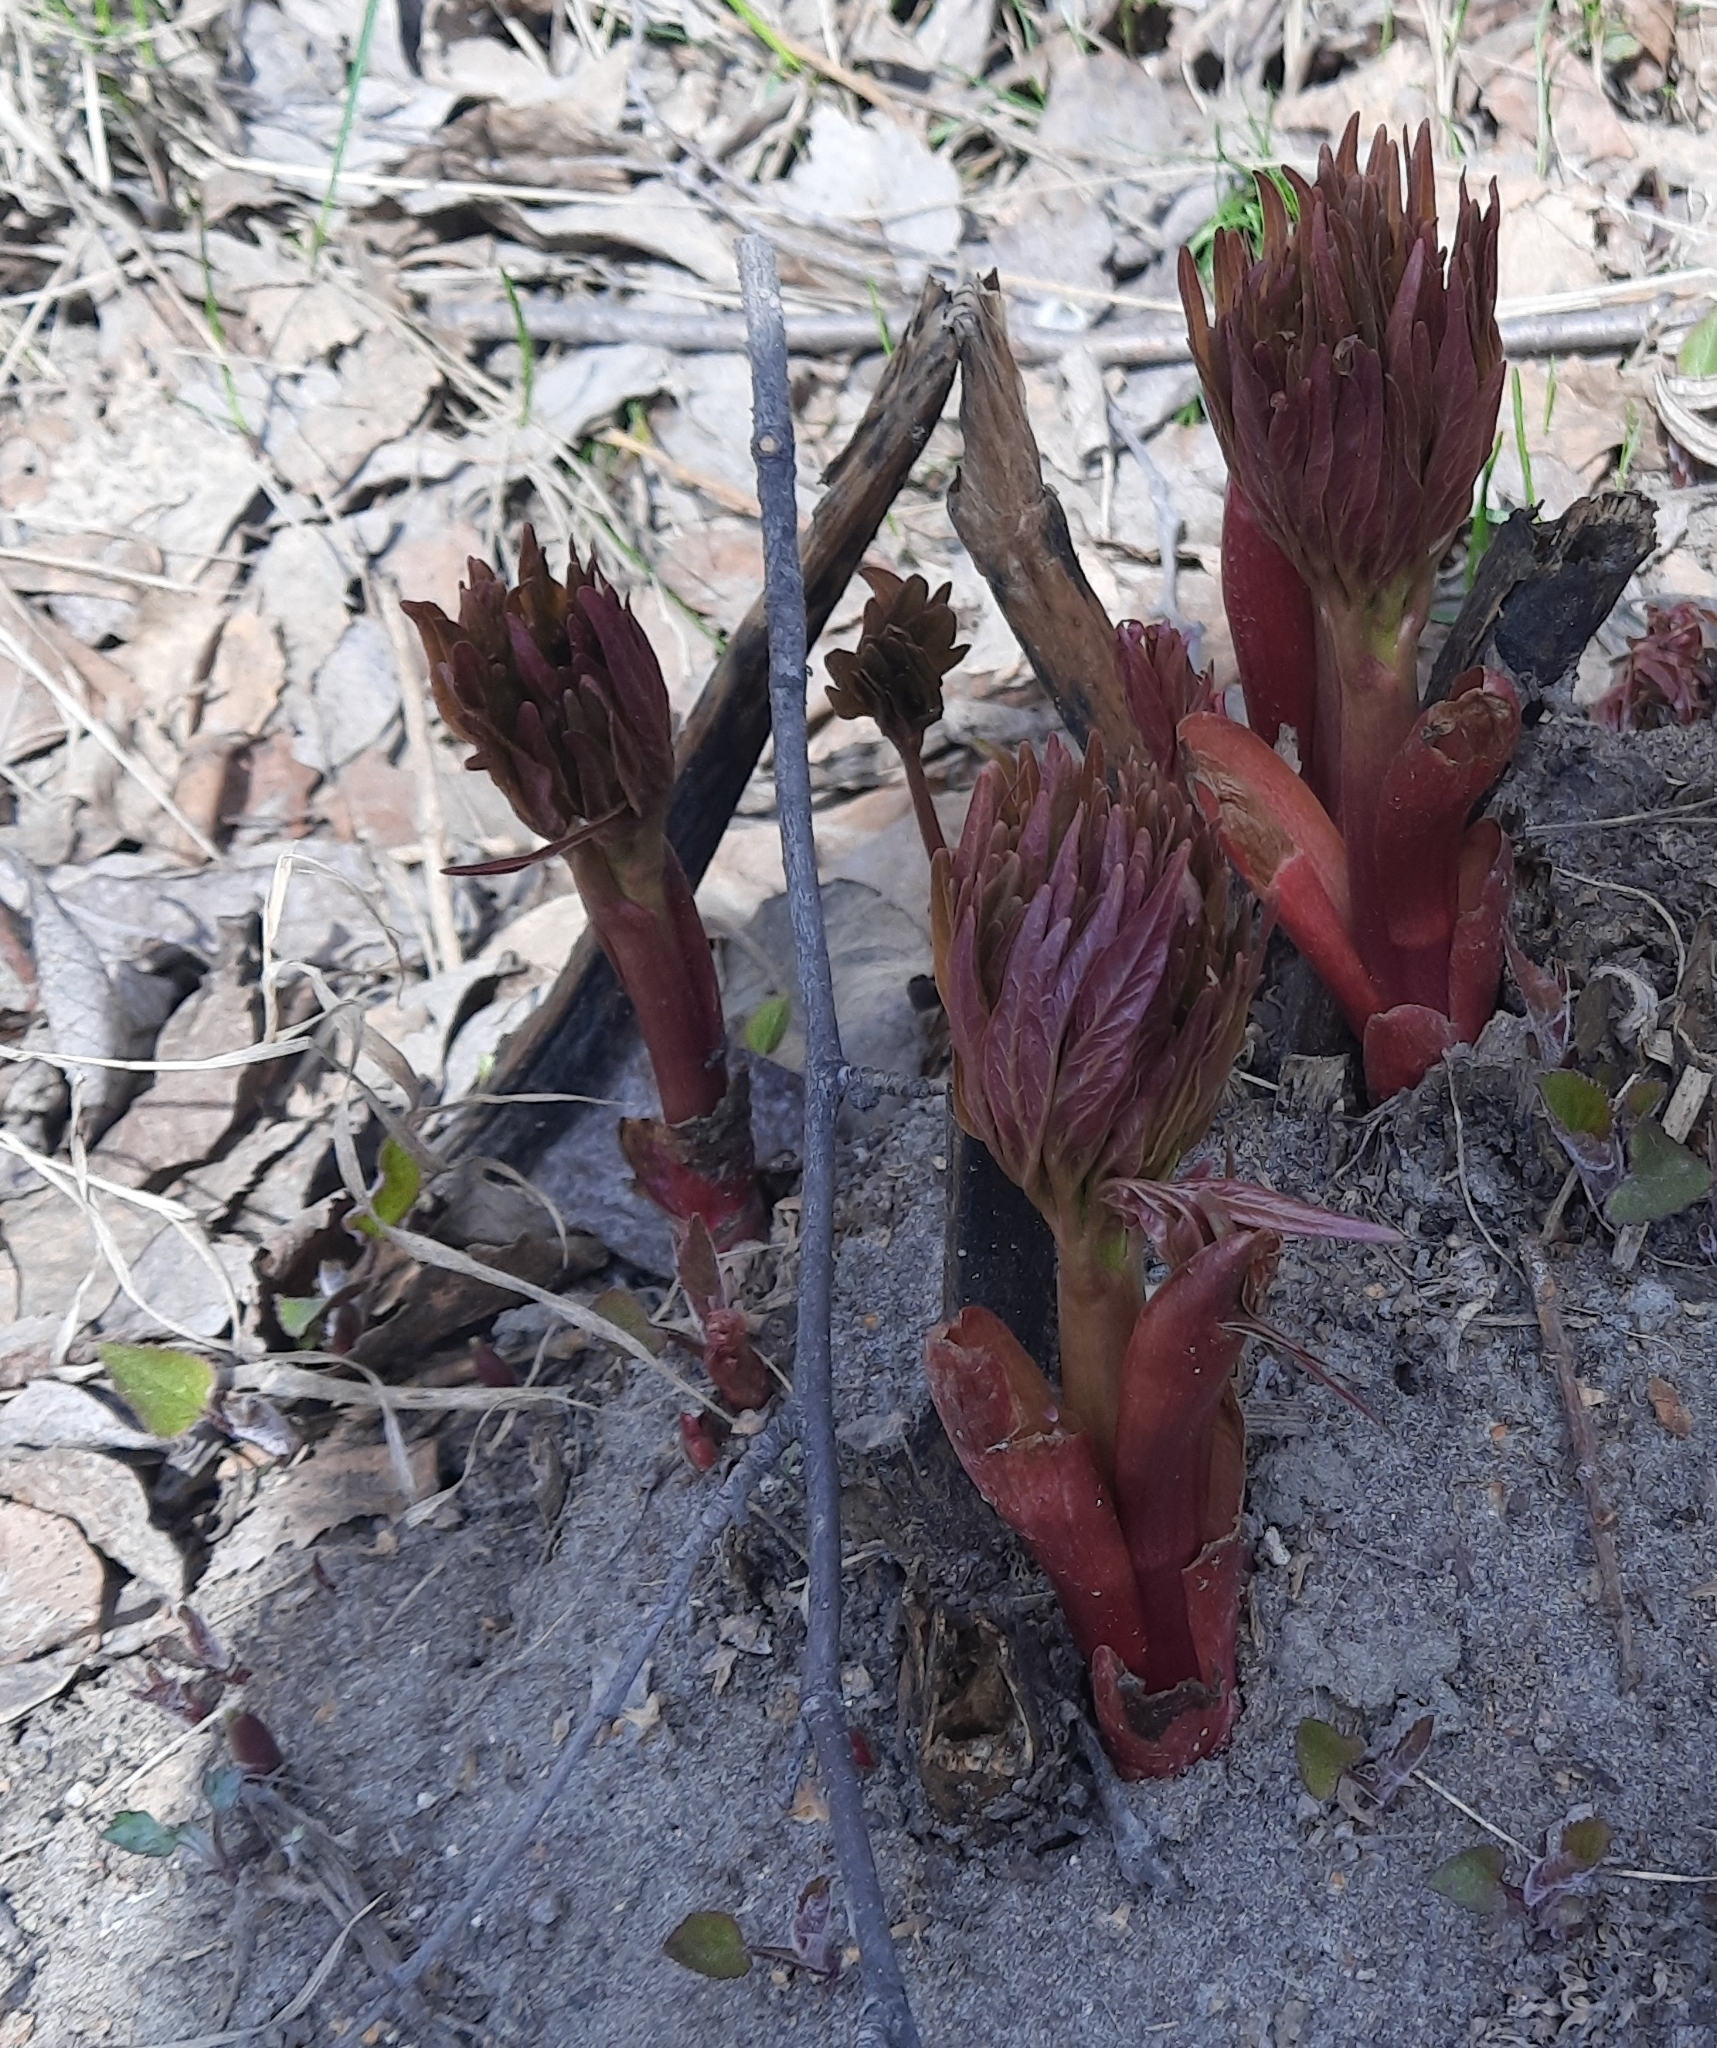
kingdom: Plantae
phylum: Tracheophyta
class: Magnoliopsida
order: Saxifragales
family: Paeoniaceae
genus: Paeonia
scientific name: Paeonia anomala
